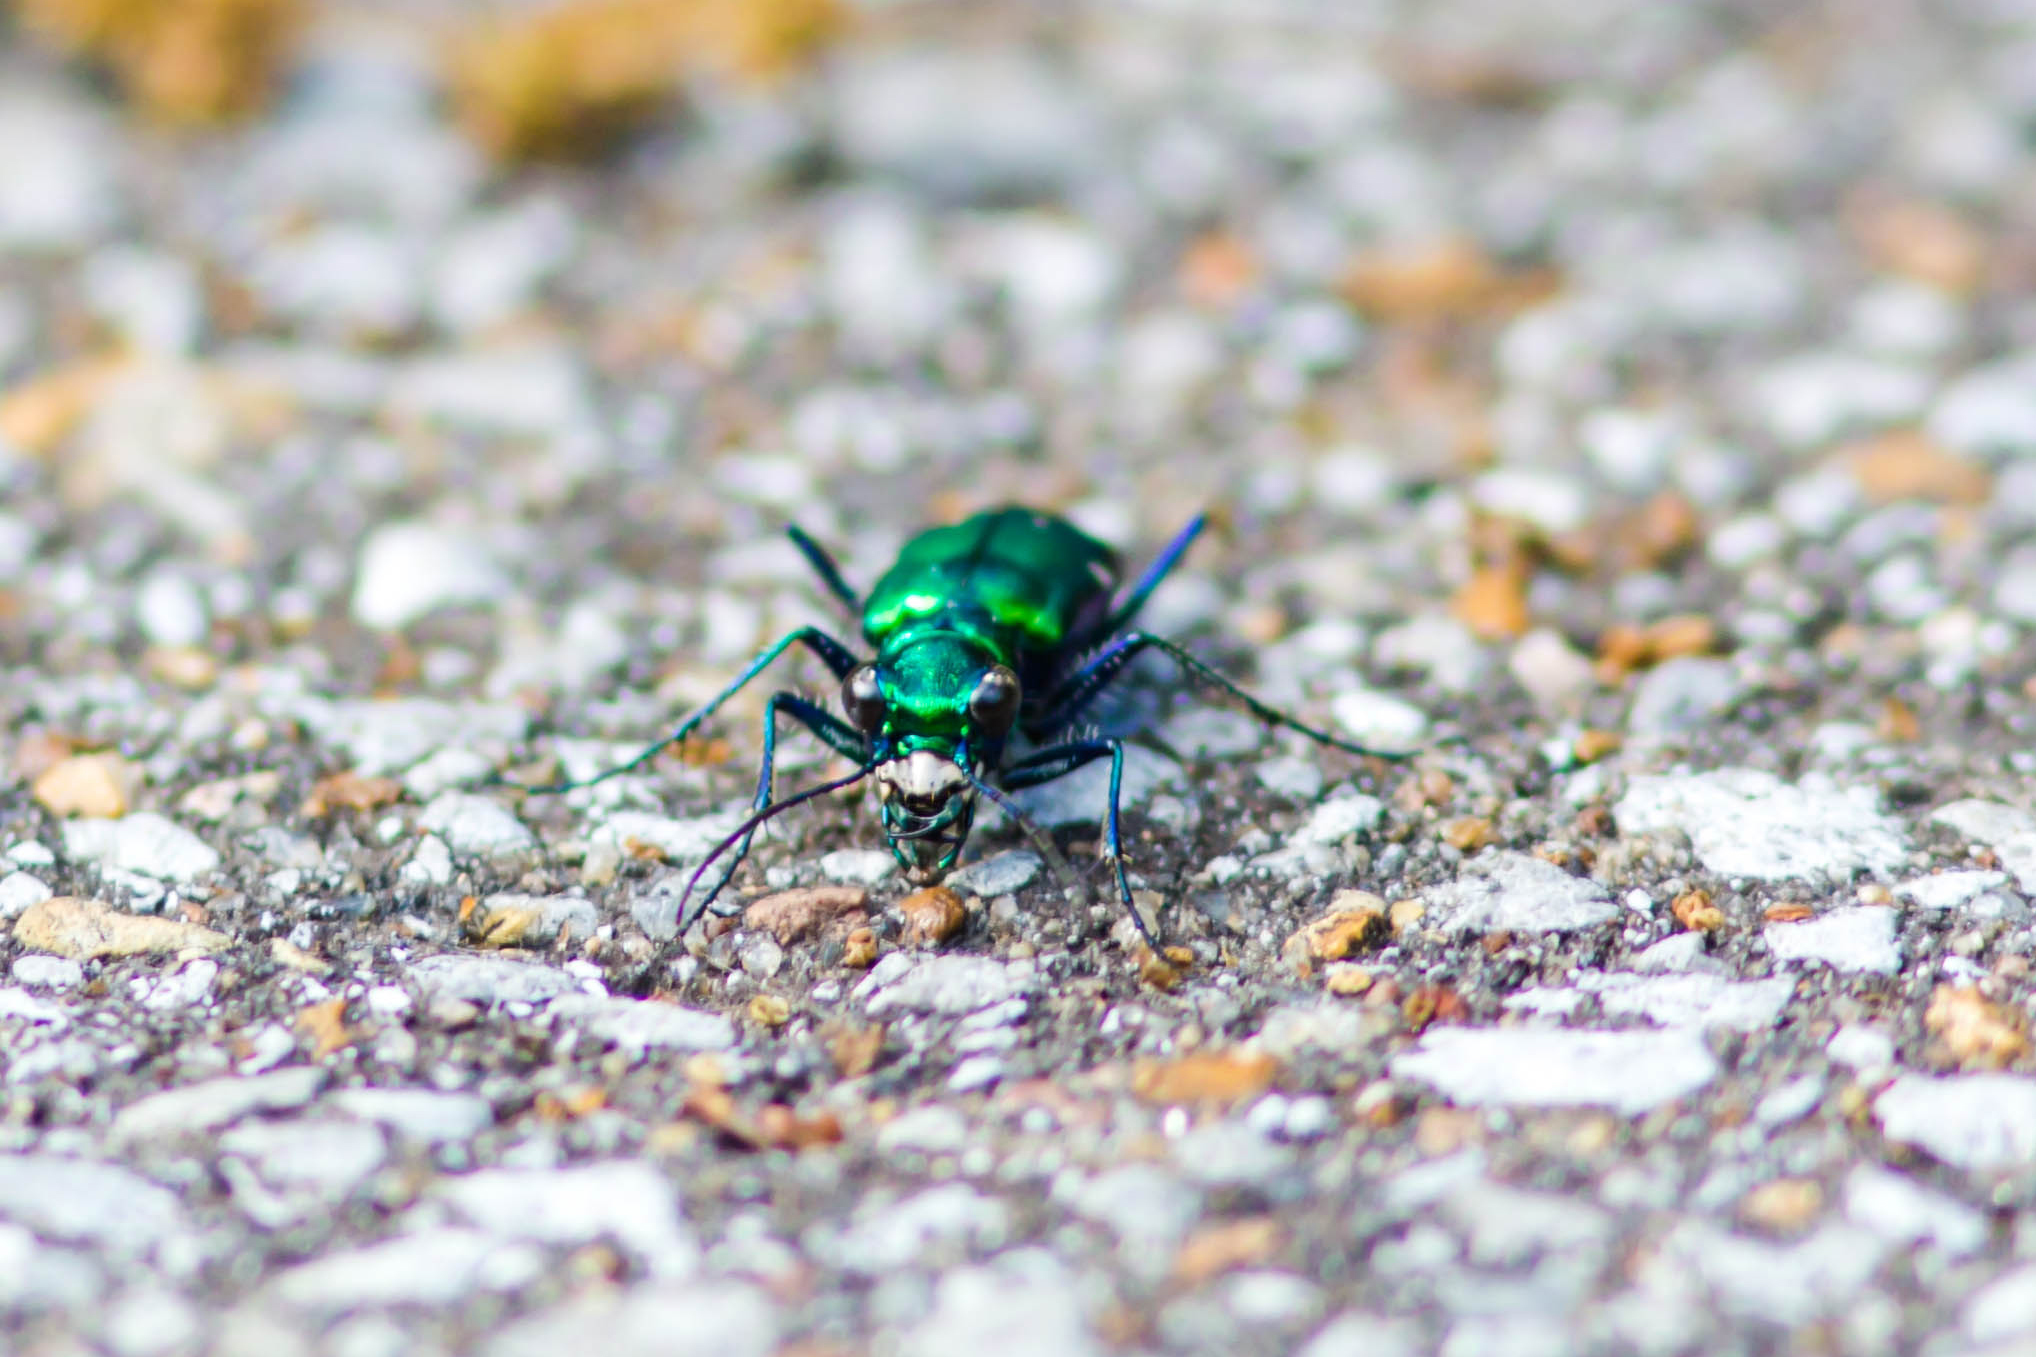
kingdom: Animalia
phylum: Arthropoda
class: Insecta
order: Coleoptera
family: Carabidae
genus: Cicindela
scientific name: Cicindela sexguttata
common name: Six-spotted tiger beetle
